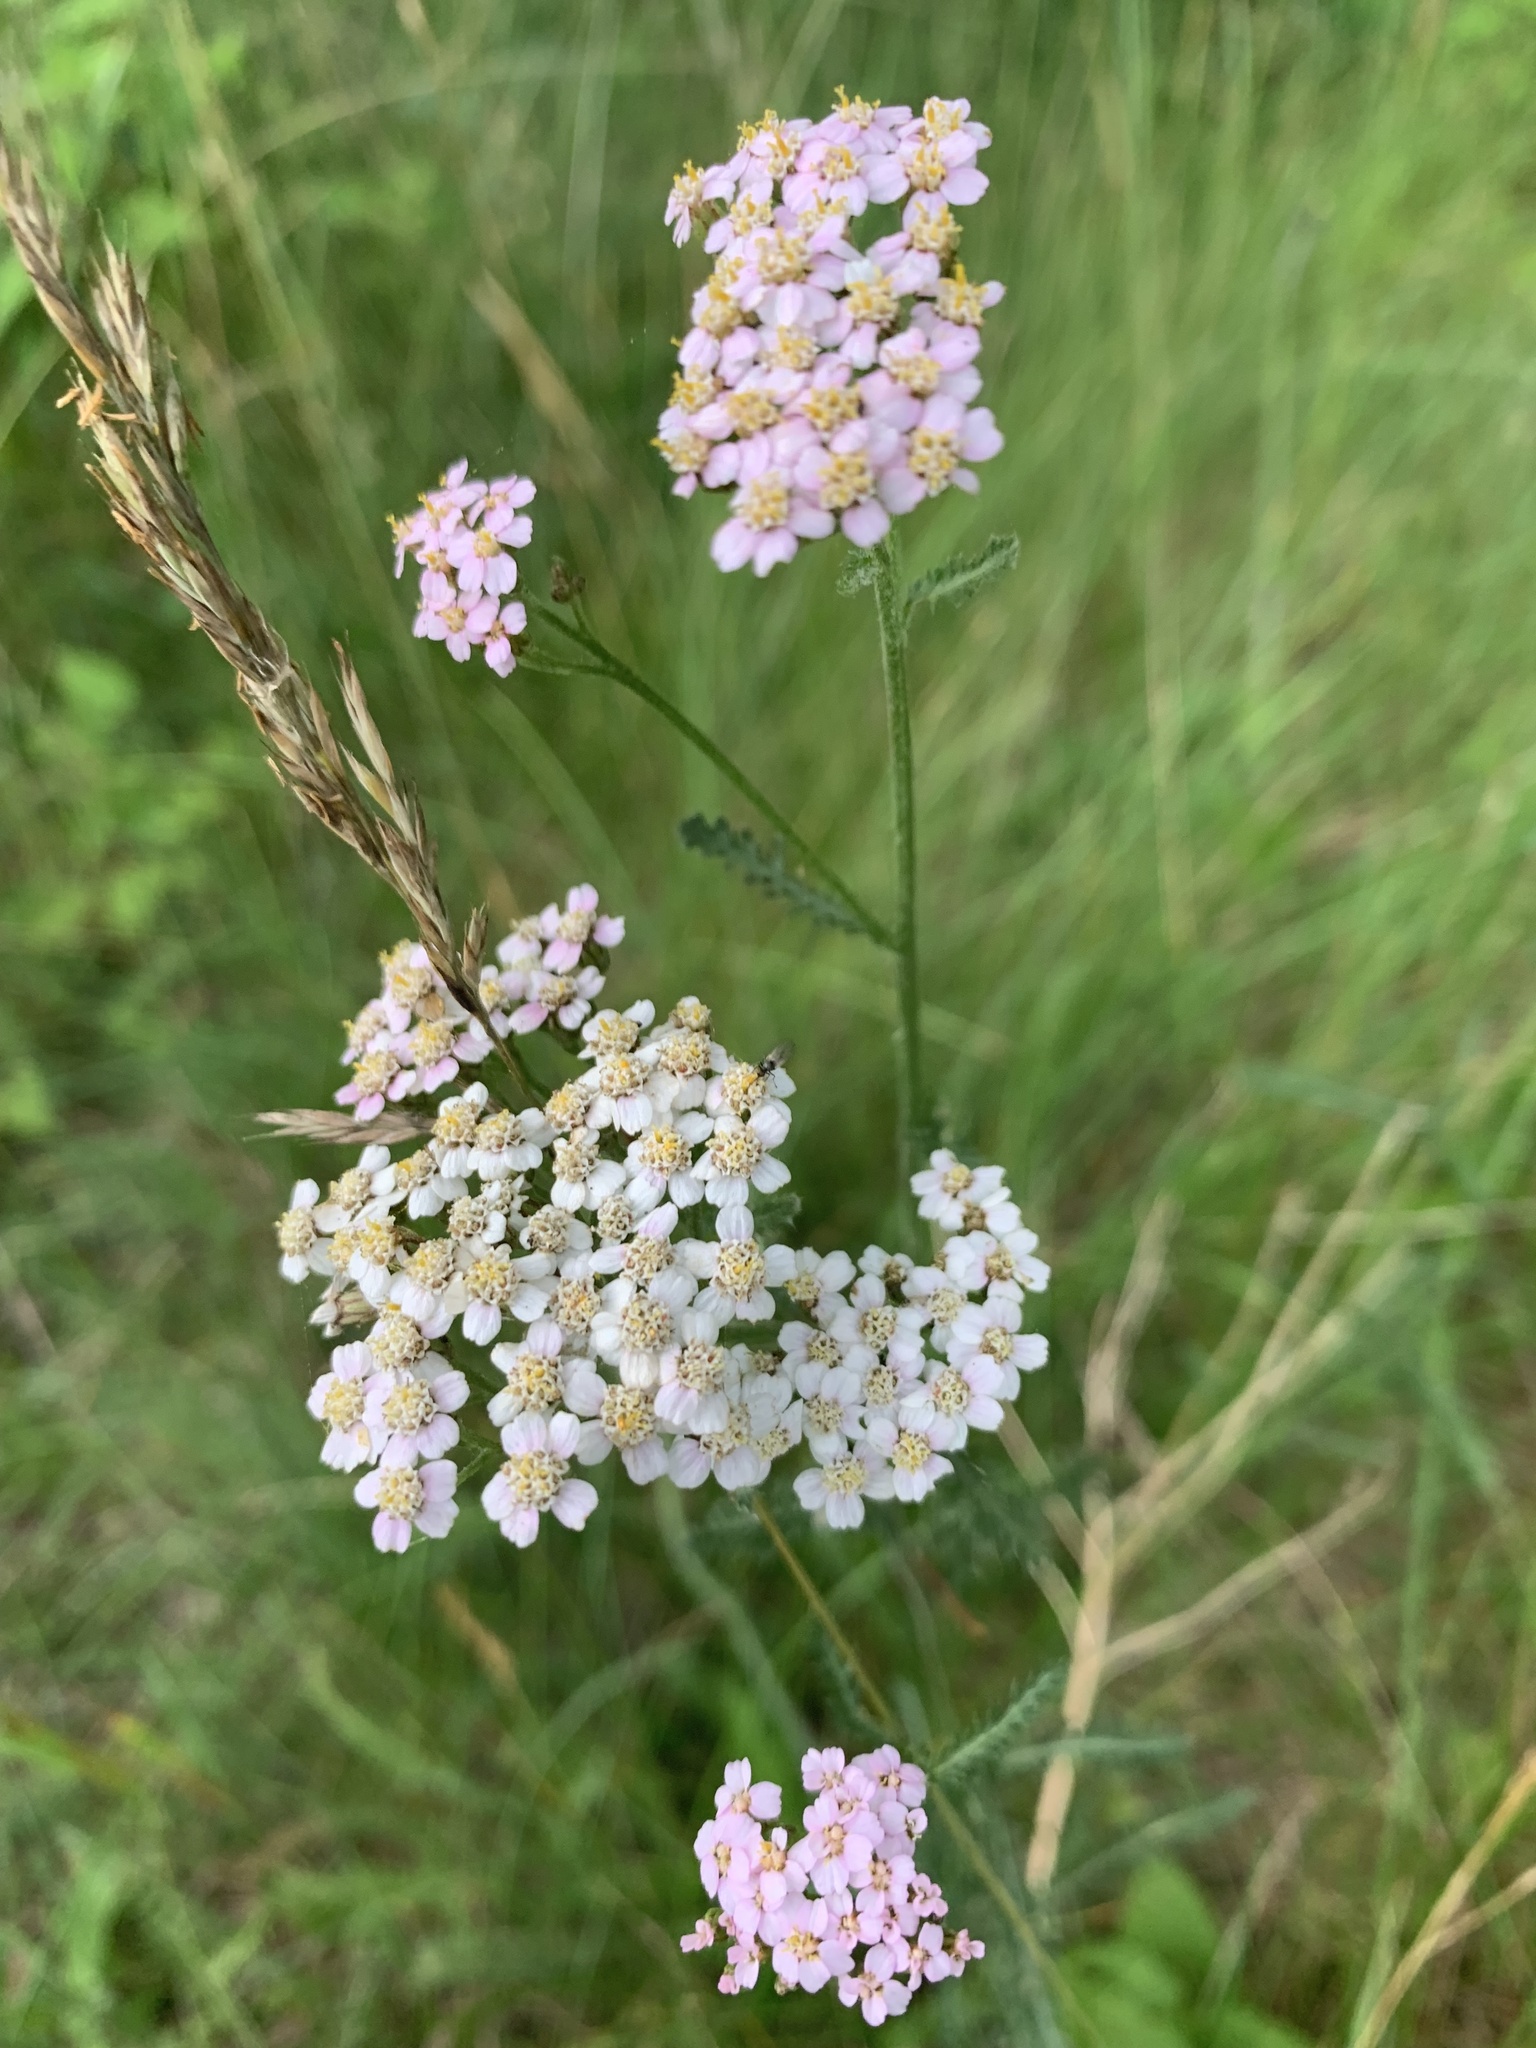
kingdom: Plantae
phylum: Tracheophyta
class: Magnoliopsida
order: Asterales
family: Asteraceae
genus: Achillea
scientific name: Achillea millefolium
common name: Yarrow
